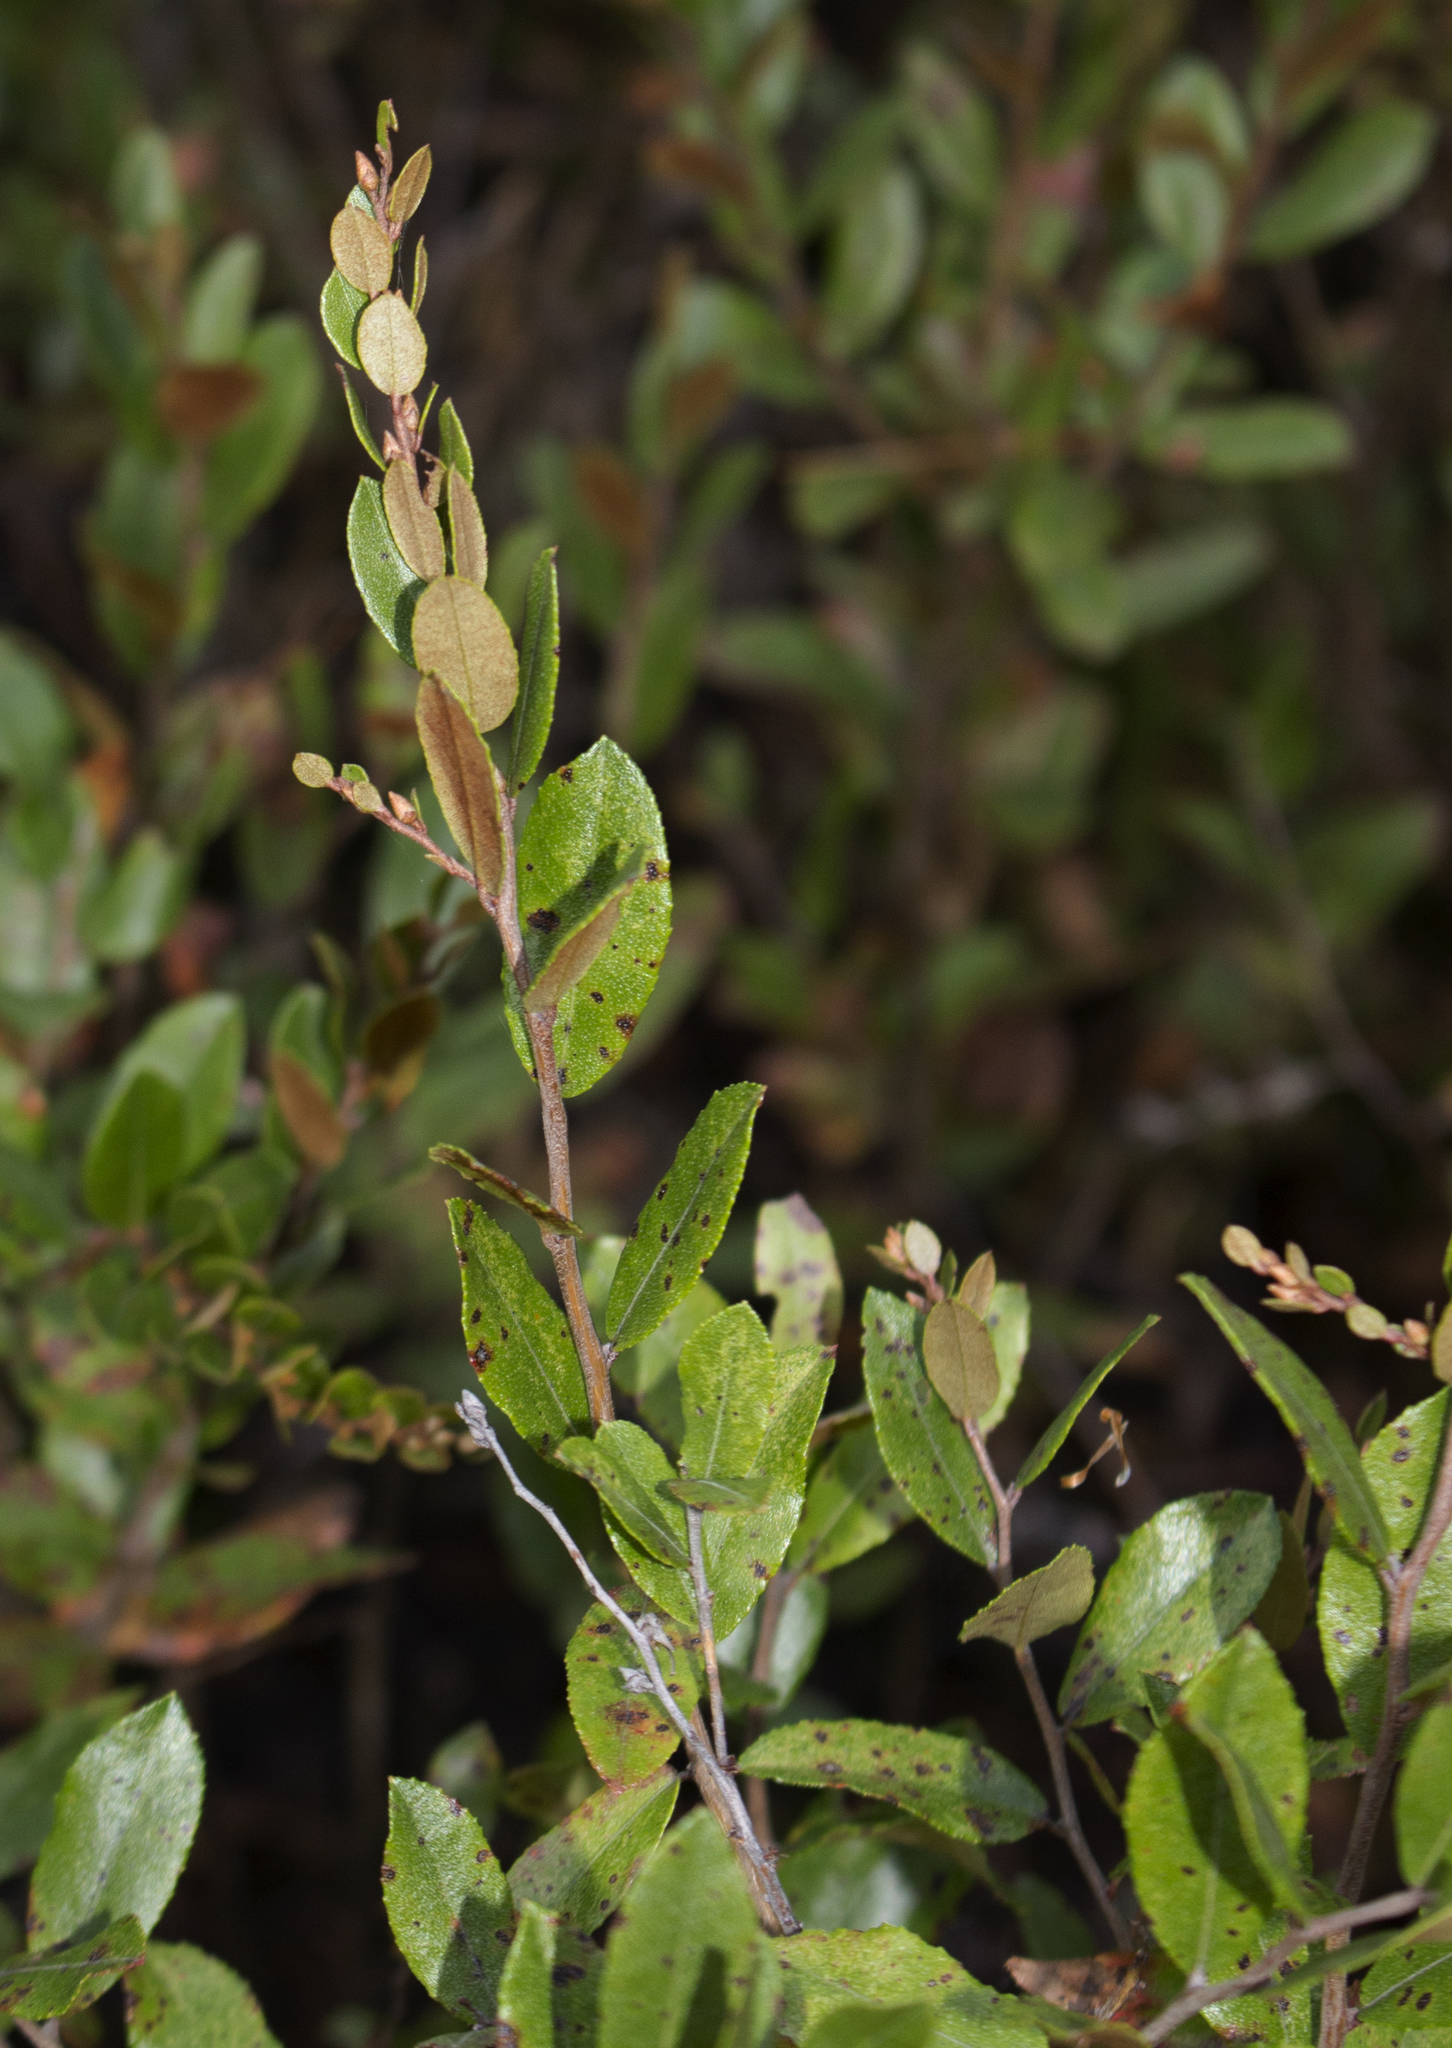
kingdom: Plantae
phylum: Tracheophyta
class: Magnoliopsida
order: Ericales
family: Ericaceae
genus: Chamaedaphne
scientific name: Chamaedaphne calyculata
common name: Leatherleaf
